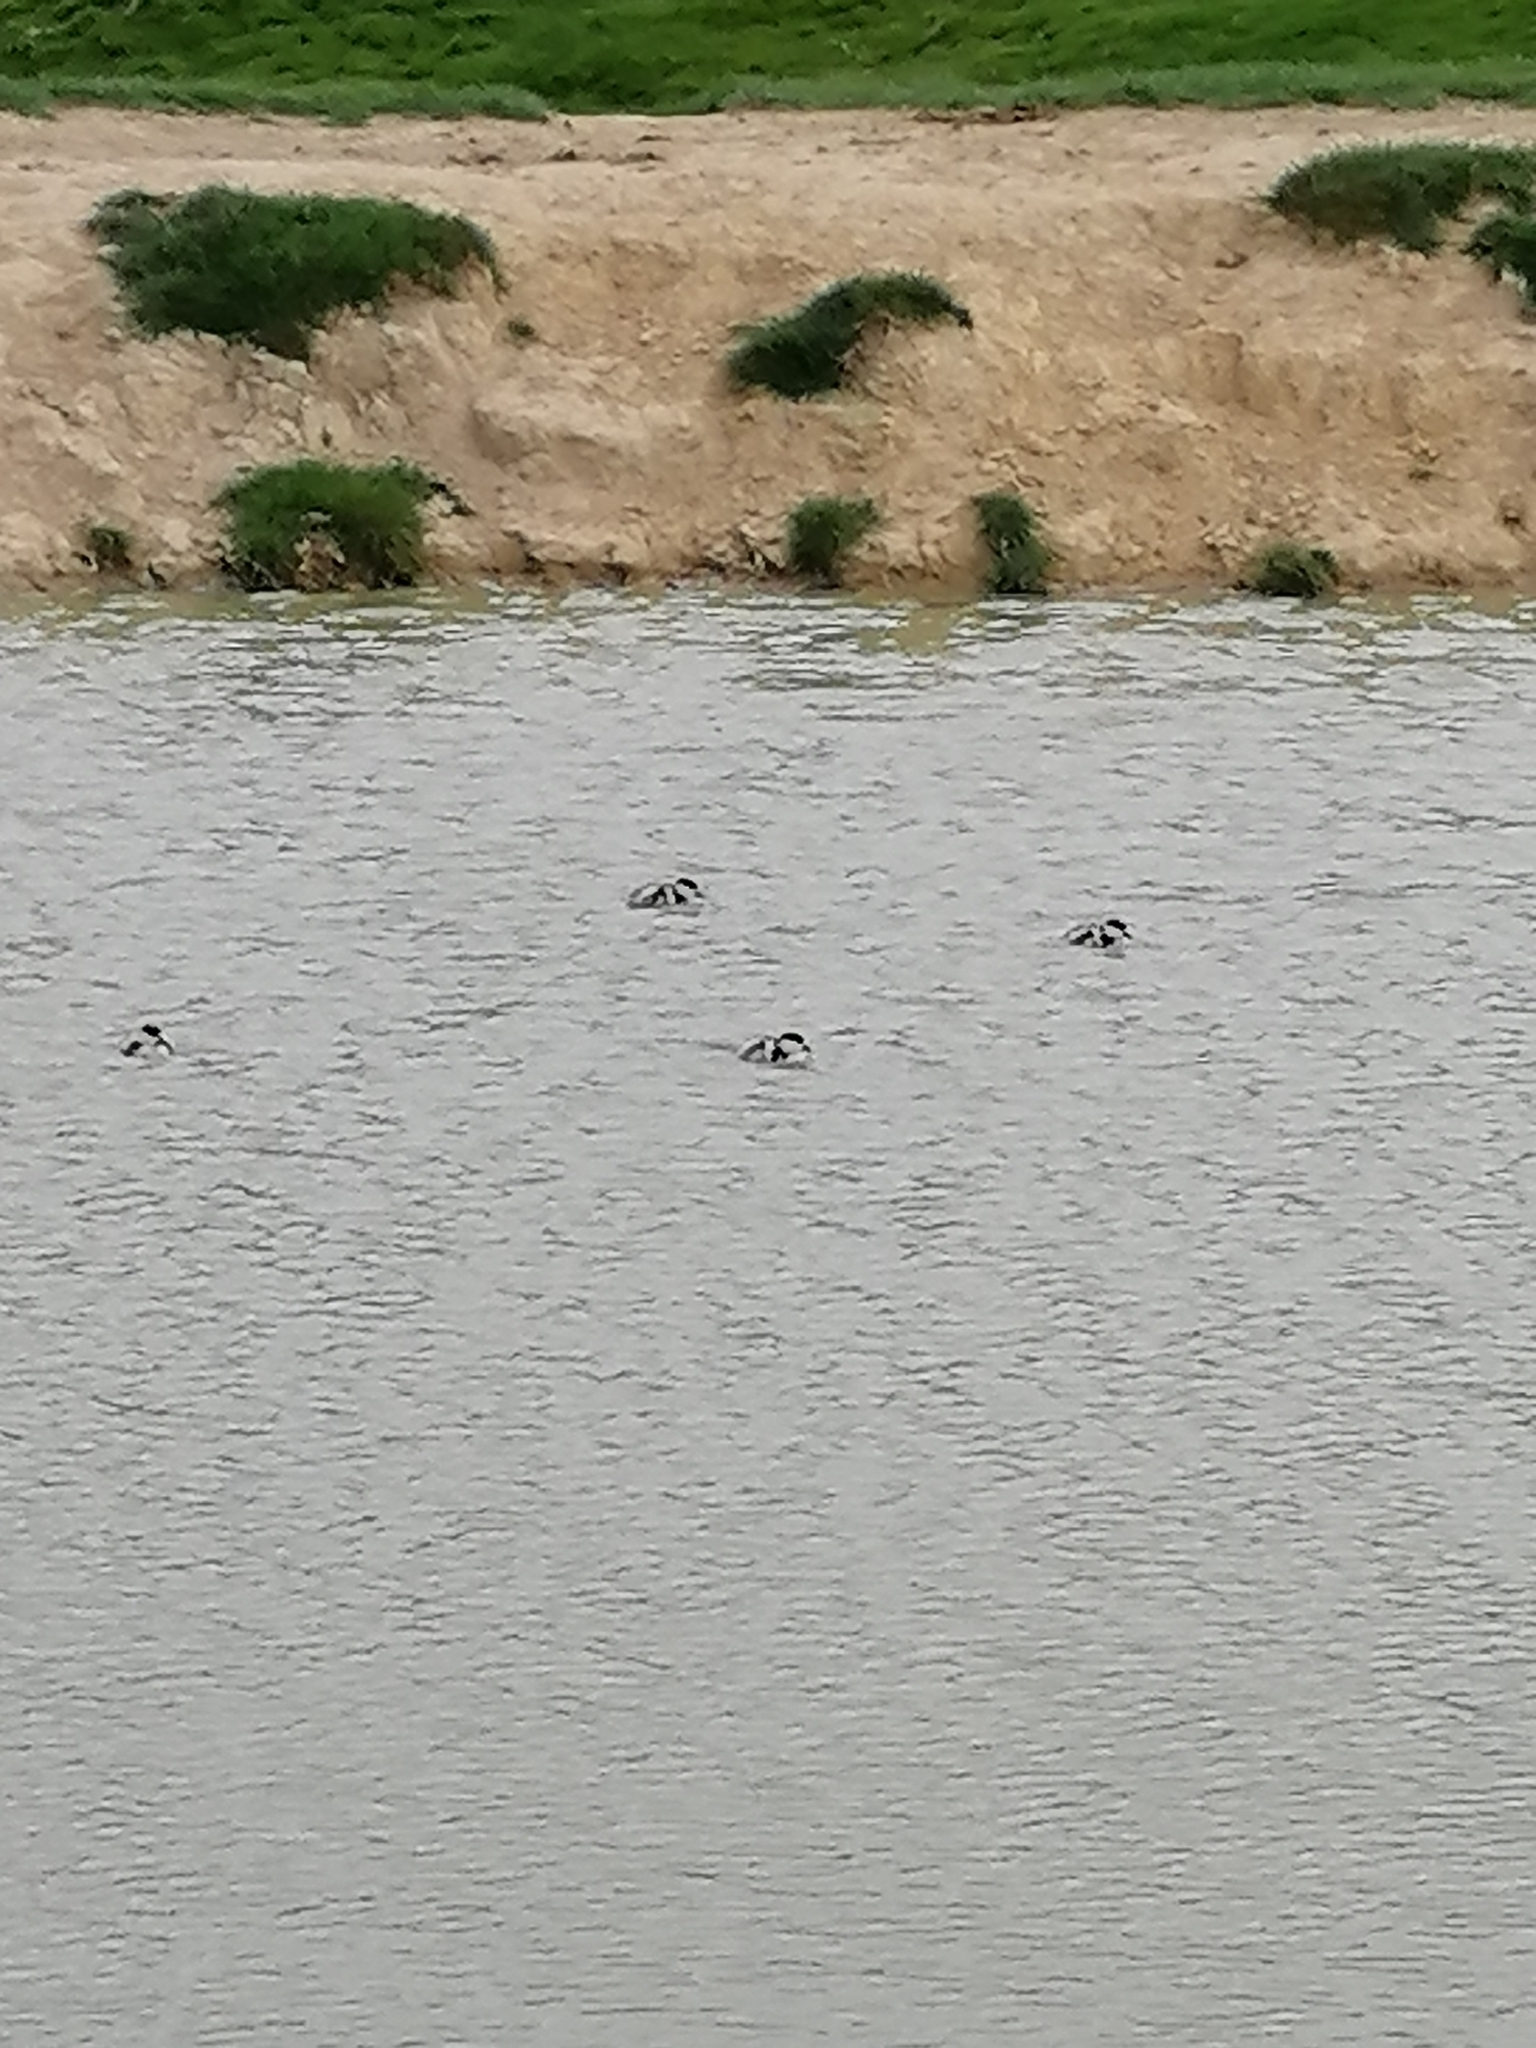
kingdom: Animalia
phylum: Chordata
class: Aves
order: Anseriformes
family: Anatidae
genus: Tadorna
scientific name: Tadorna variegata
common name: Paradise shelduck
